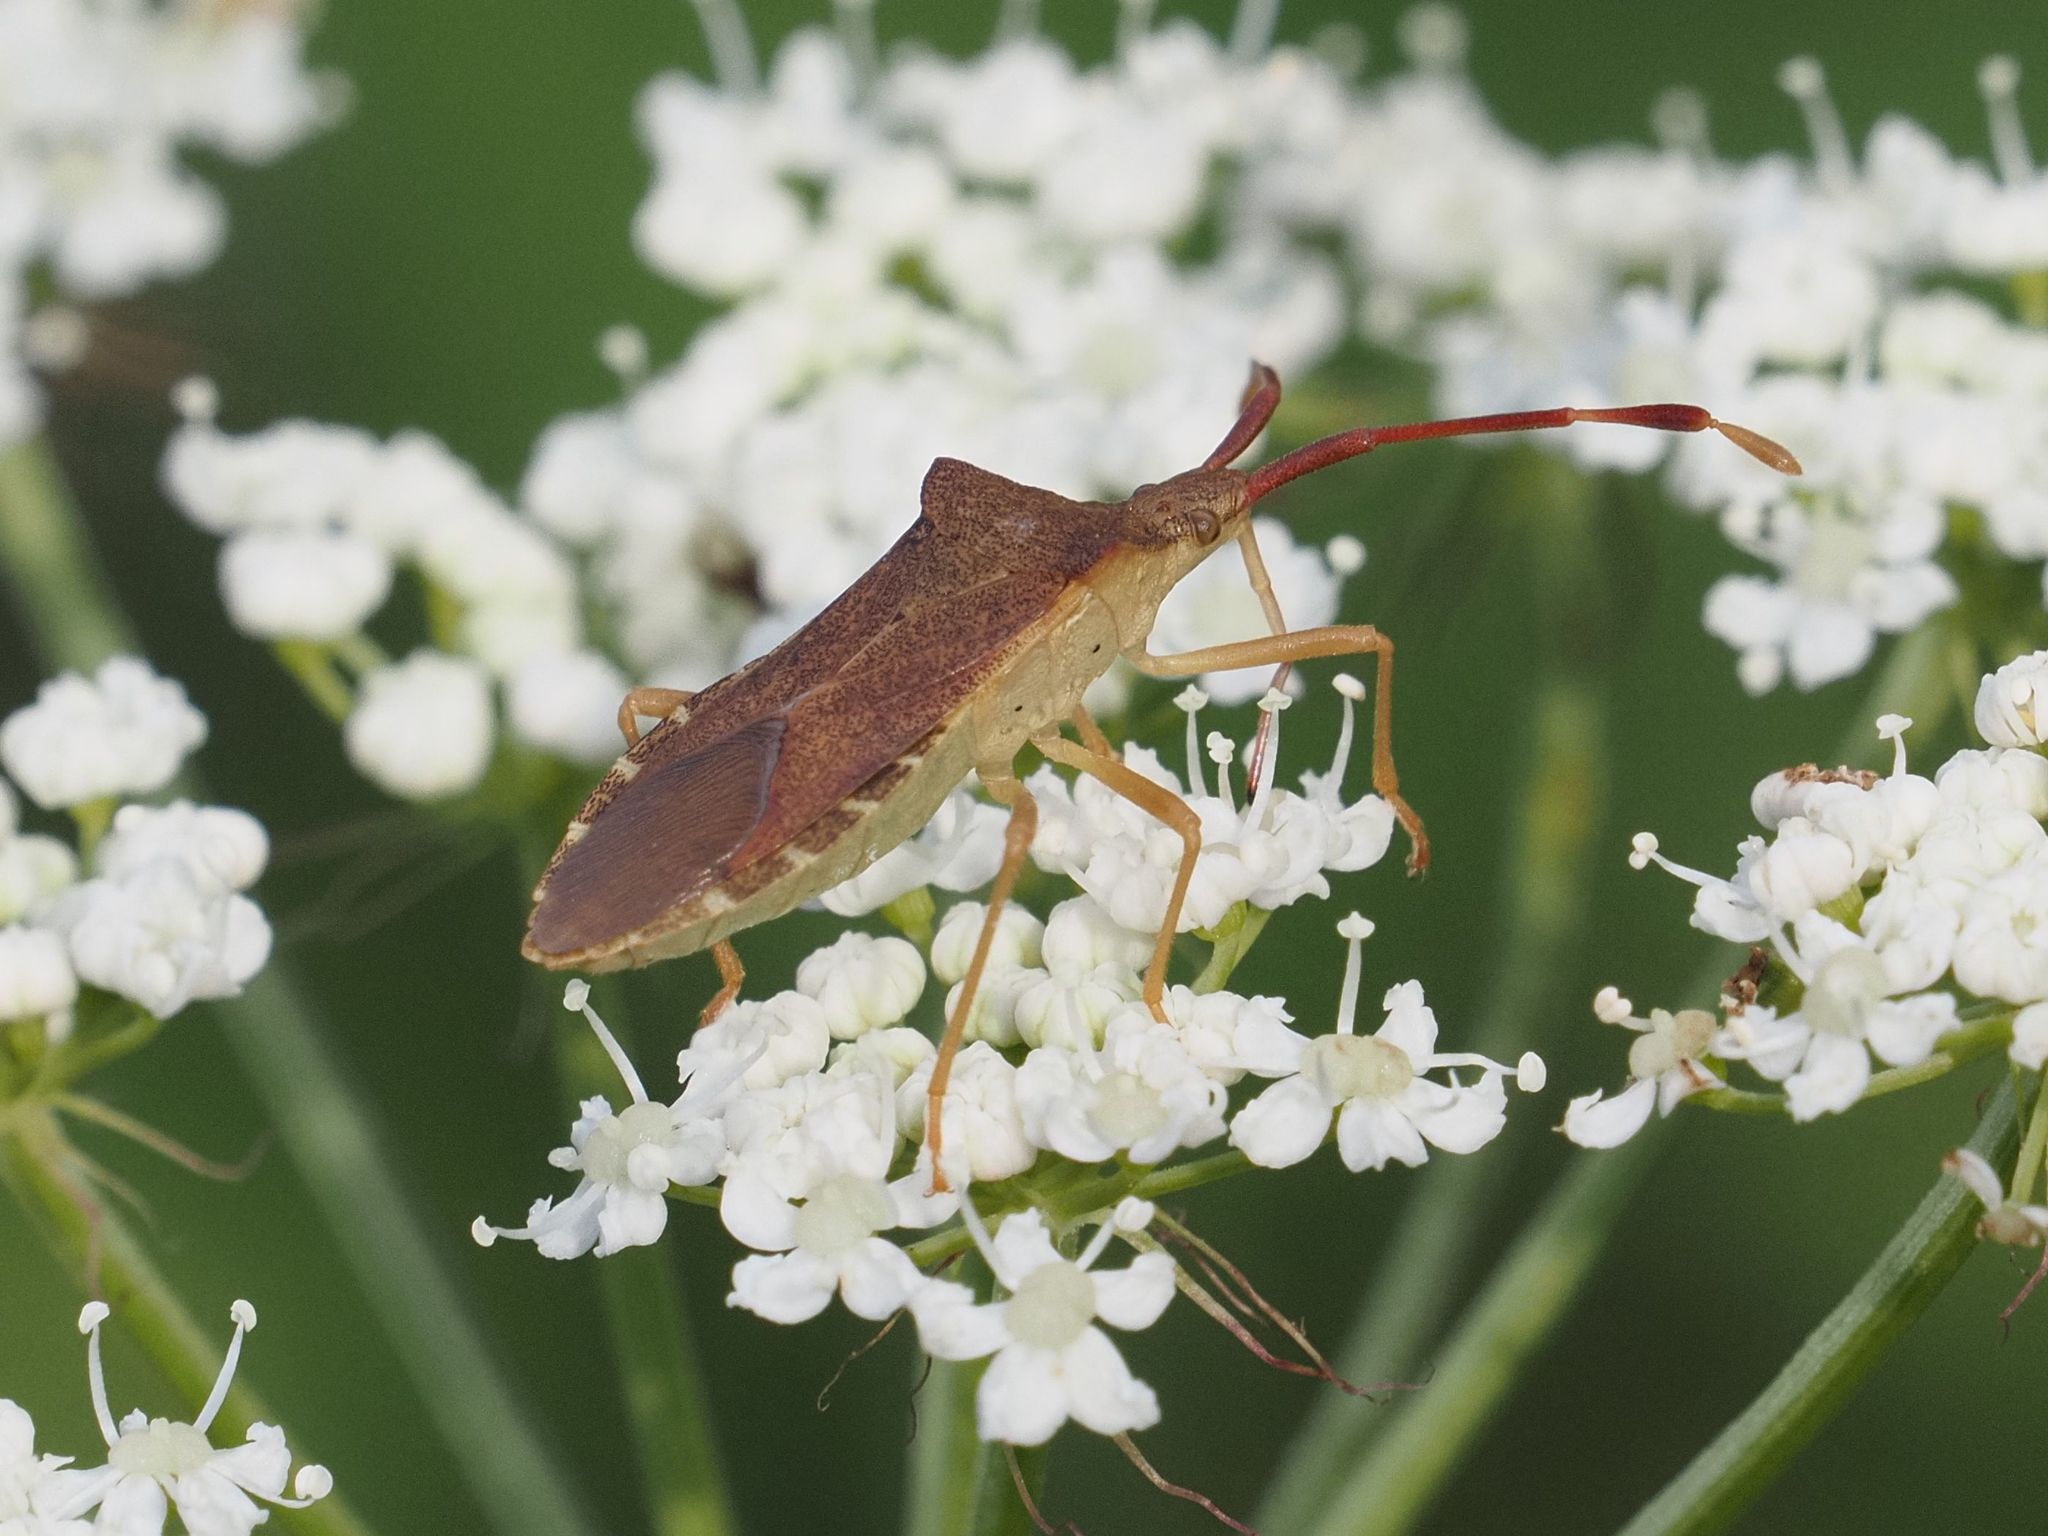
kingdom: Animalia
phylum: Arthropoda
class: Insecta
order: Hemiptera
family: Coreidae
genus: Gonocerus
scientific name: Gonocerus acuteangulatus
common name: Box bug
